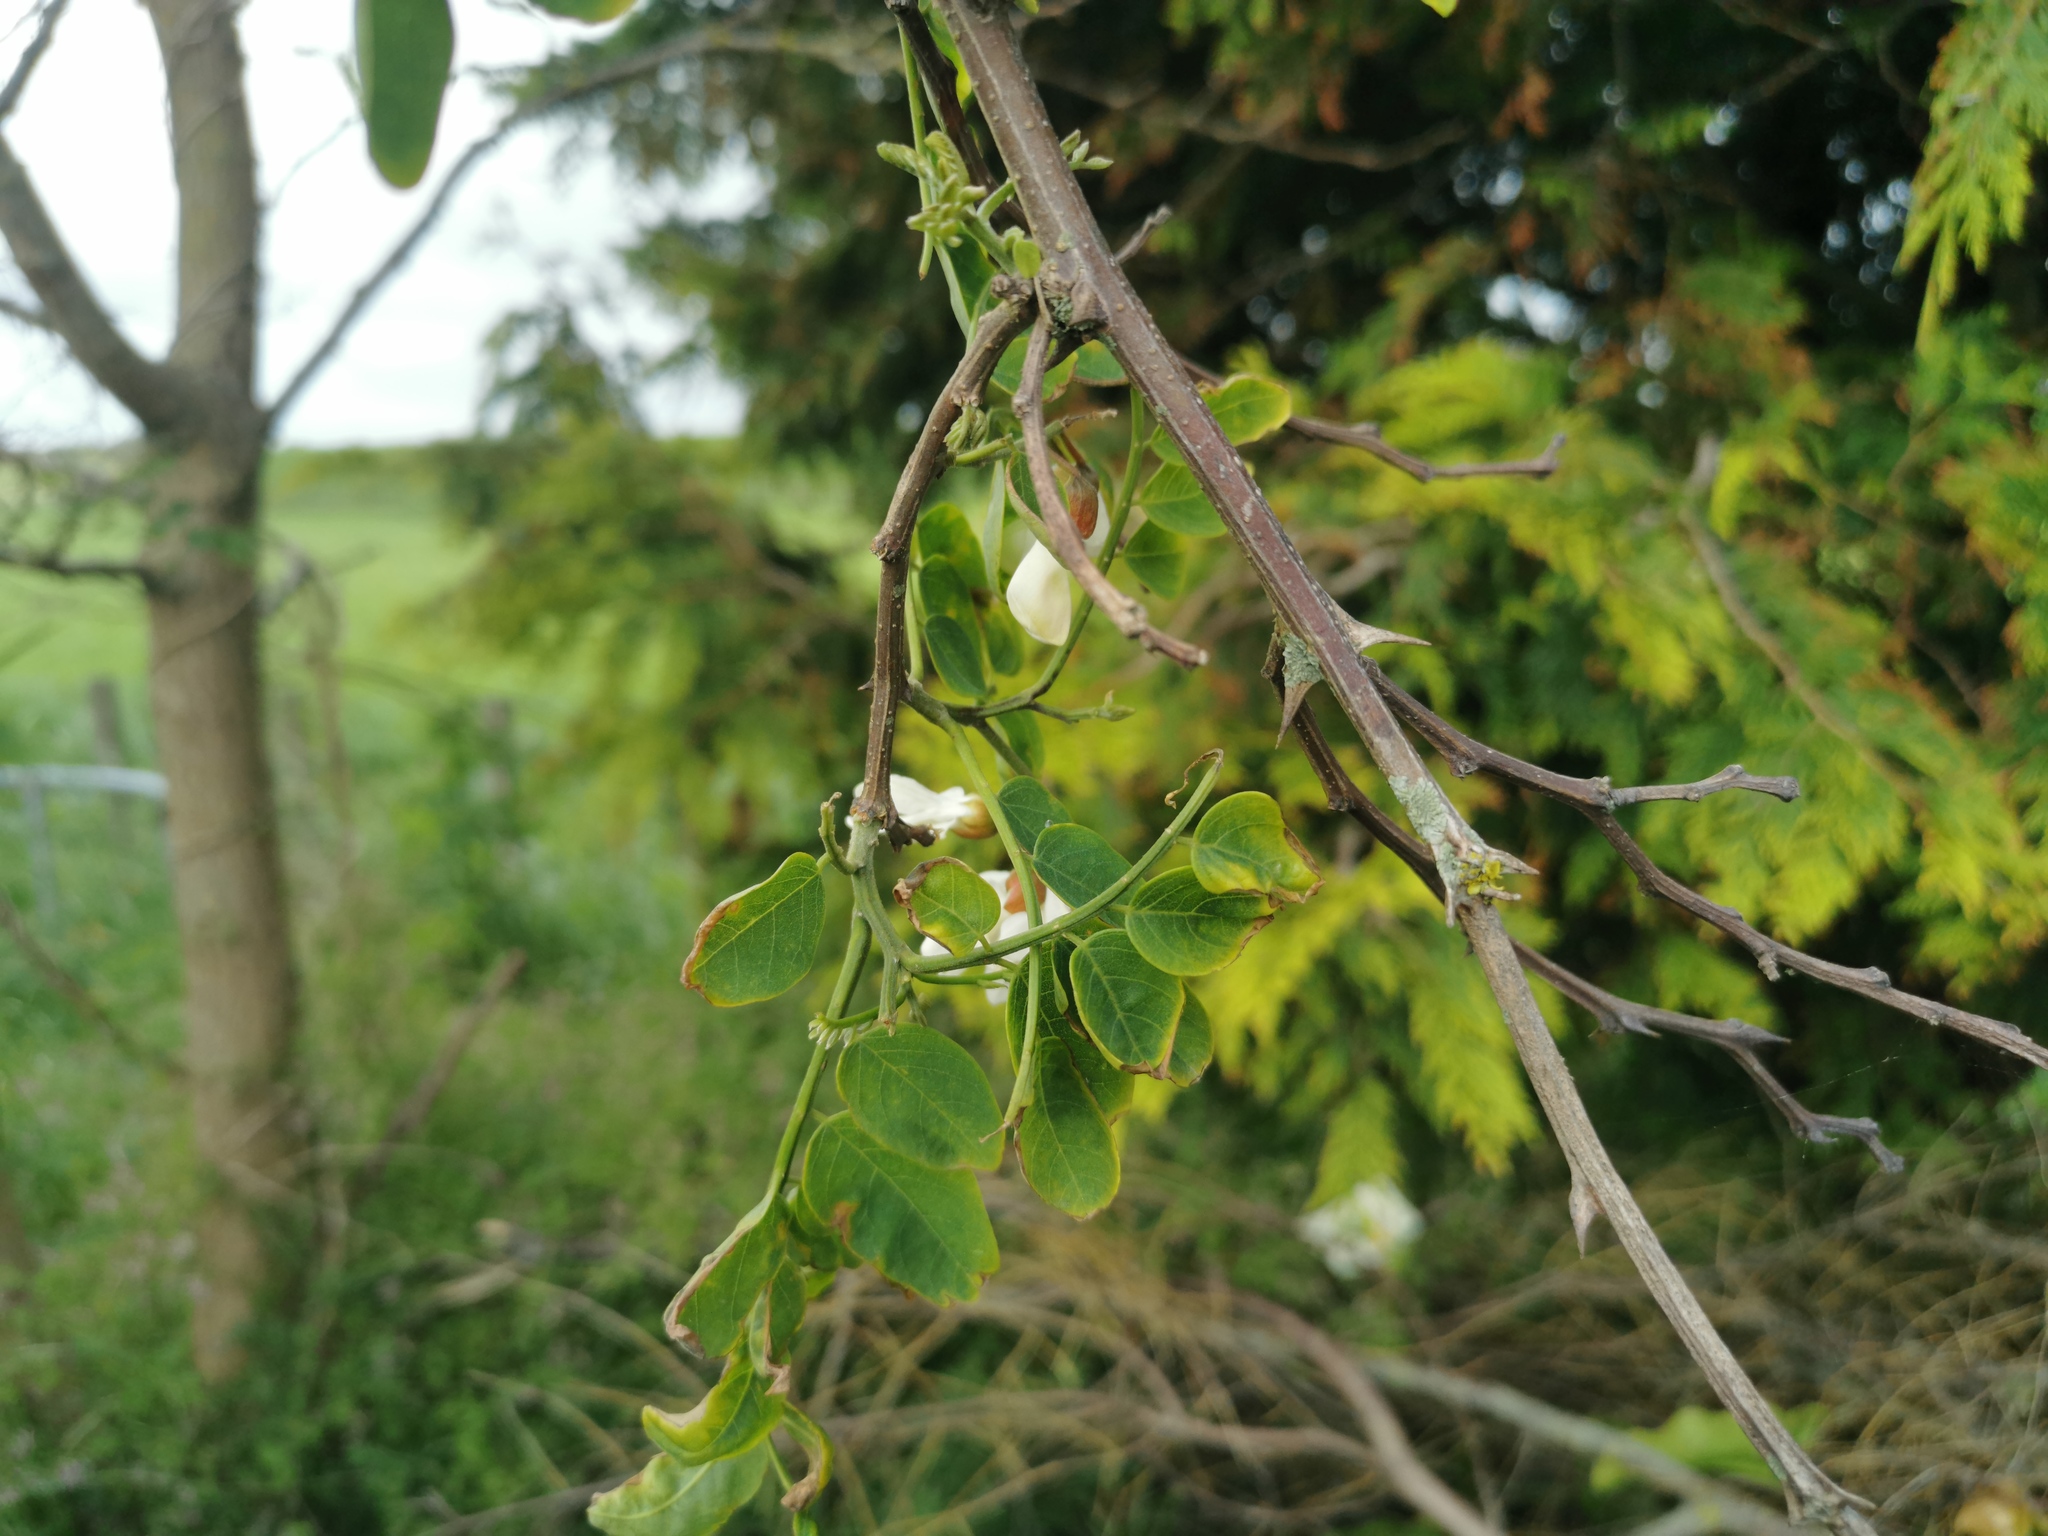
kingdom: Plantae
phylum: Tracheophyta
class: Magnoliopsida
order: Fabales
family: Fabaceae
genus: Robinia
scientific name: Robinia pseudoacacia
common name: Black locust
